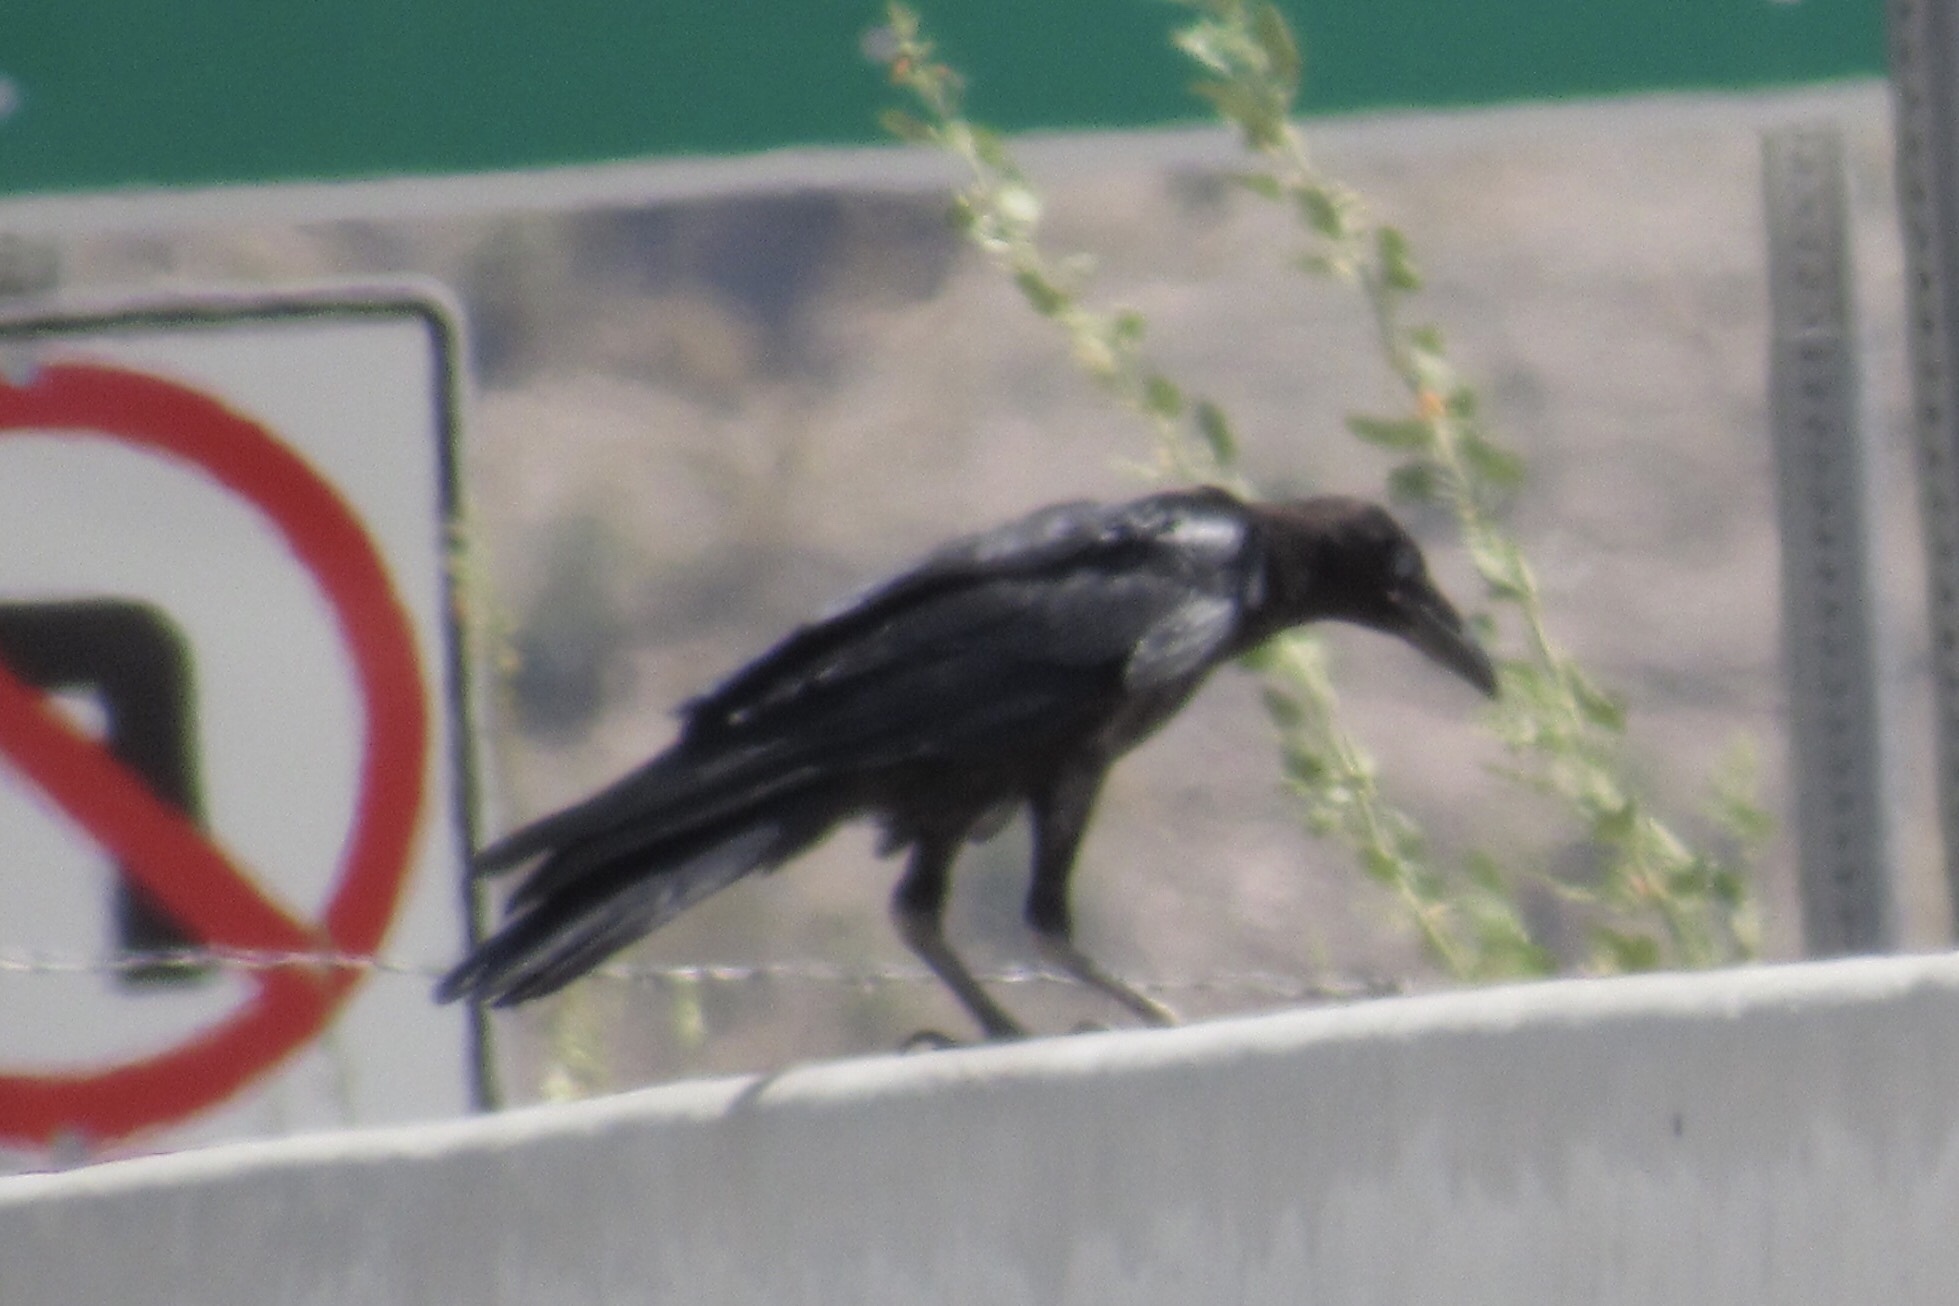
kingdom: Animalia
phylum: Chordata
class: Aves
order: Passeriformes
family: Corvidae
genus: Corvus
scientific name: Corvus corax
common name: Common raven
